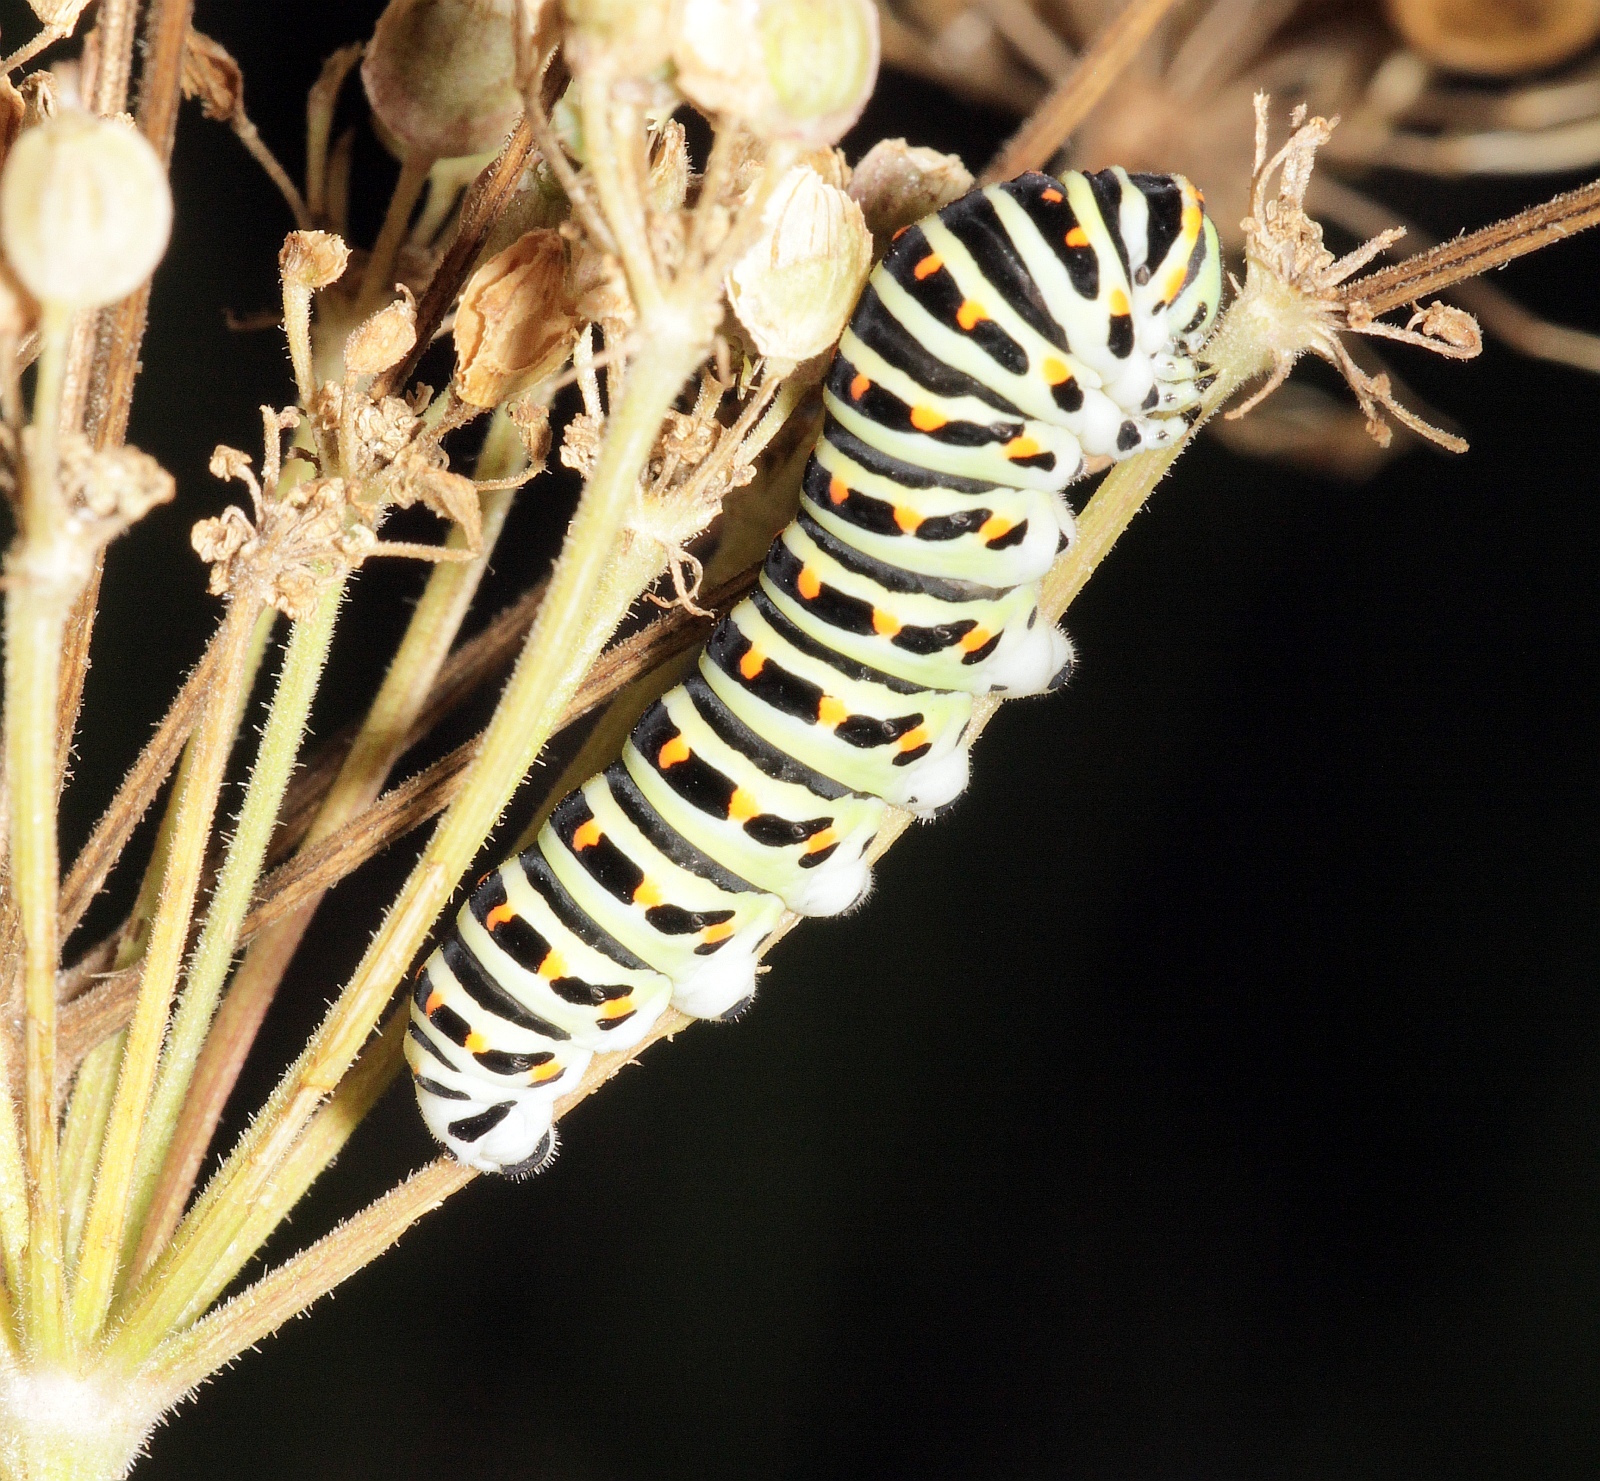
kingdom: Animalia
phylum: Arthropoda
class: Insecta
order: Lepidoptera
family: Papilionidae
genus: Papilio
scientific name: Papilio machaon
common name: Swallowtail
